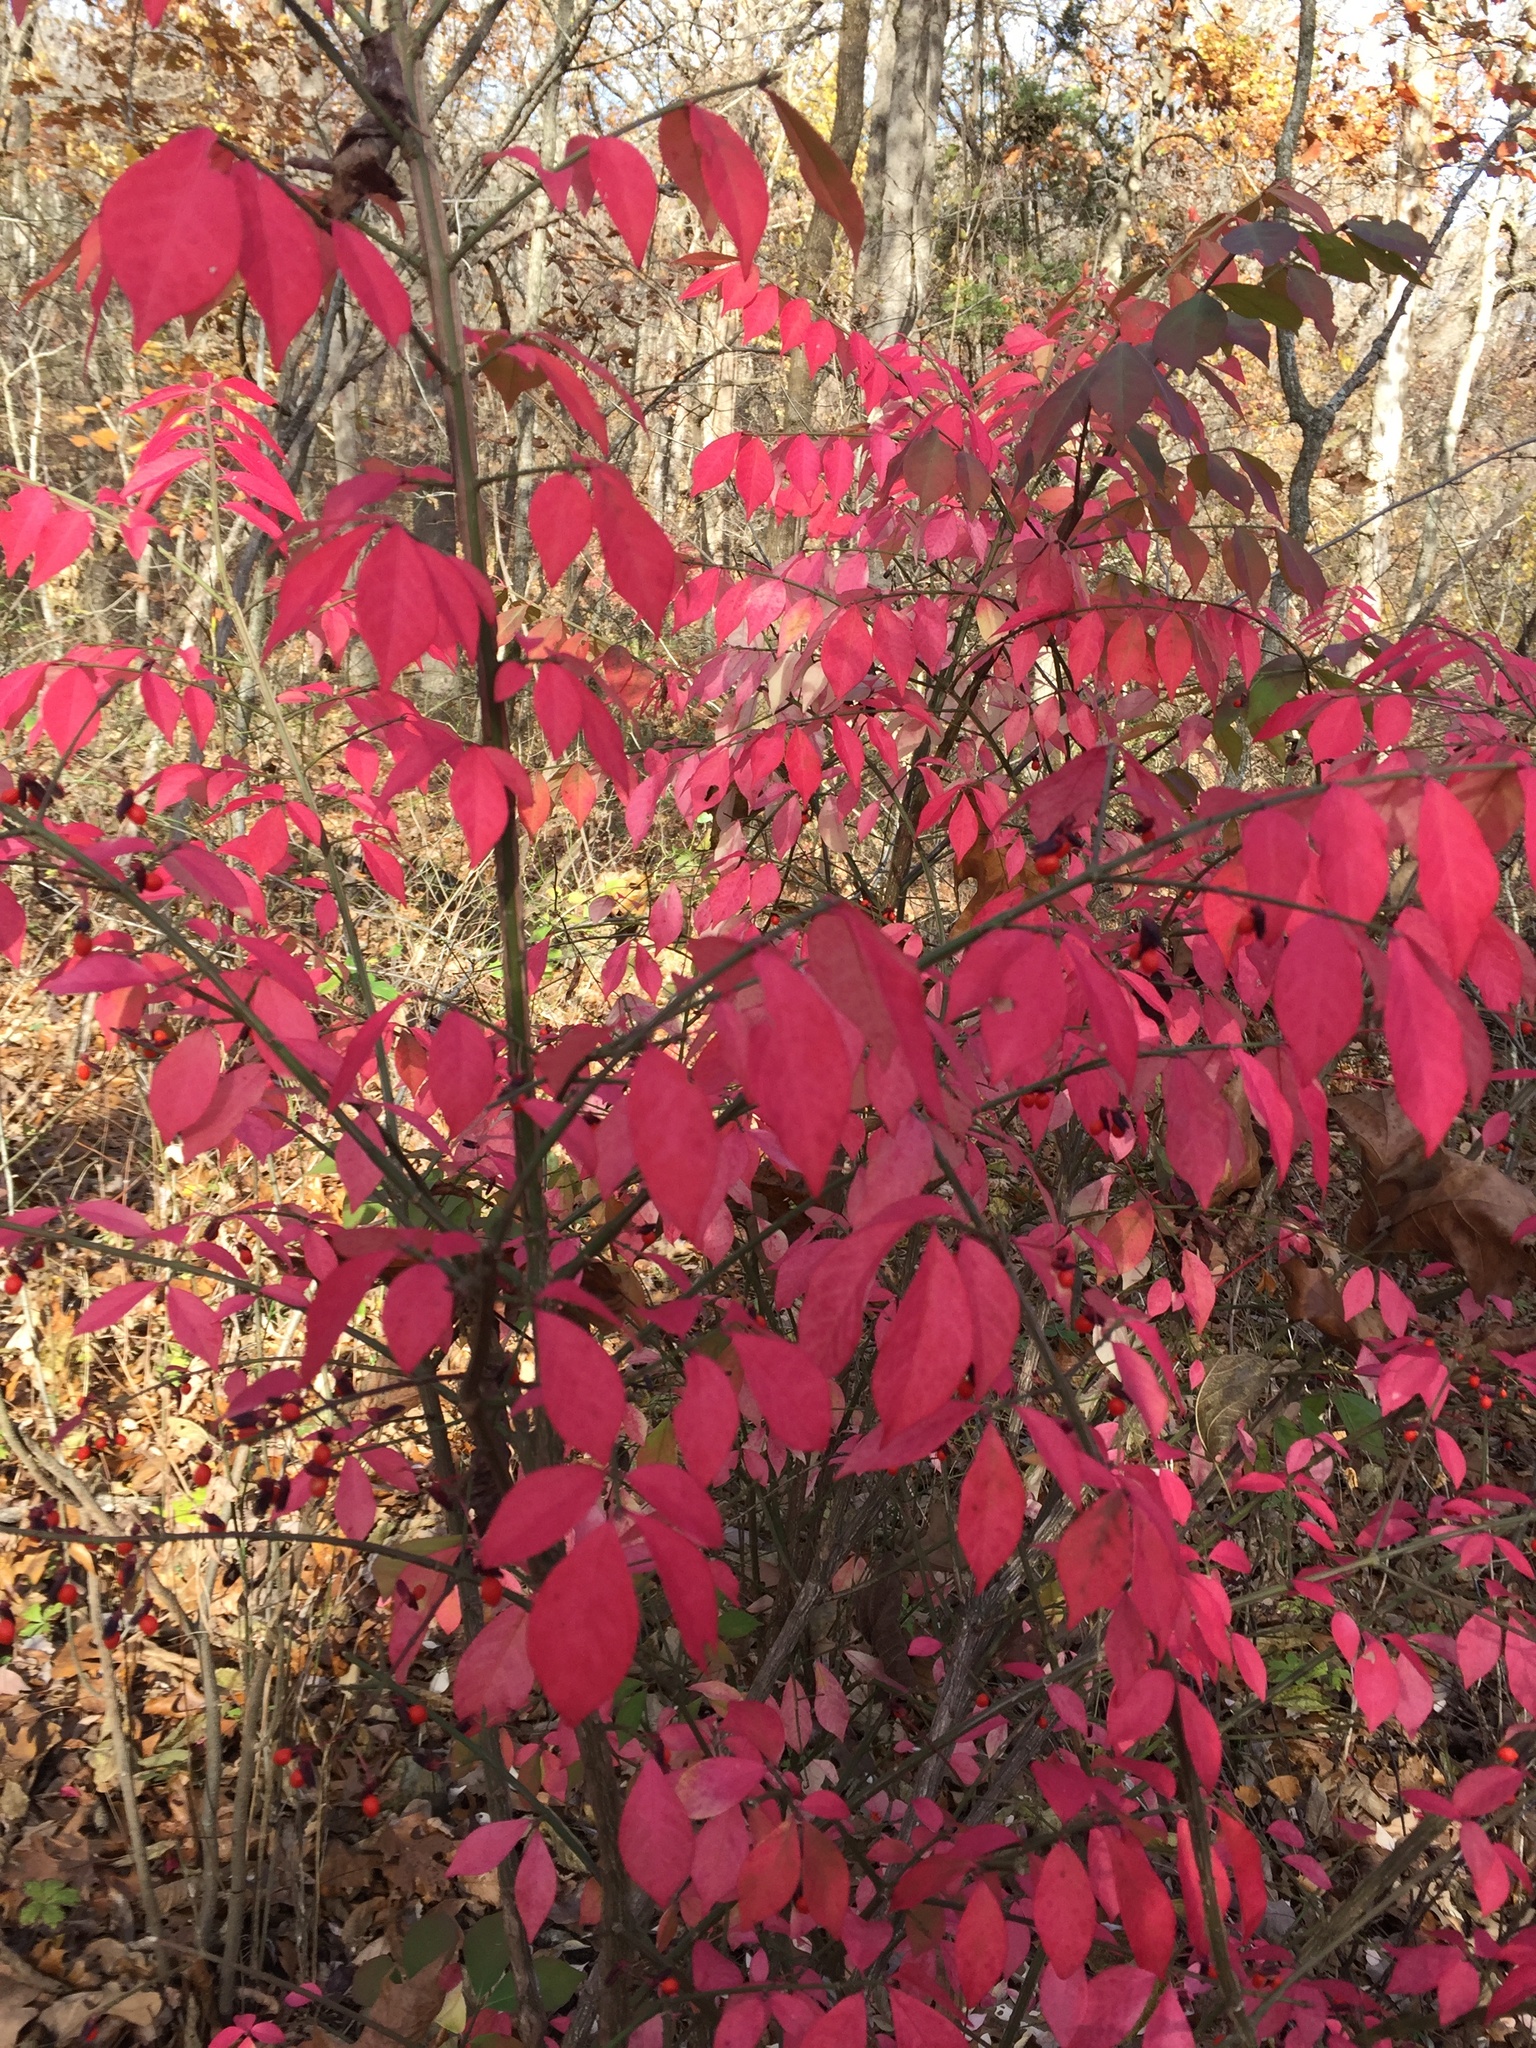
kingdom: Plantae
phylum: Tracheophyta
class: Magnoliopsida
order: Celastrales
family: Celastraceae
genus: Euonymus
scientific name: Euonymus alatus
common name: Winged euonymus
